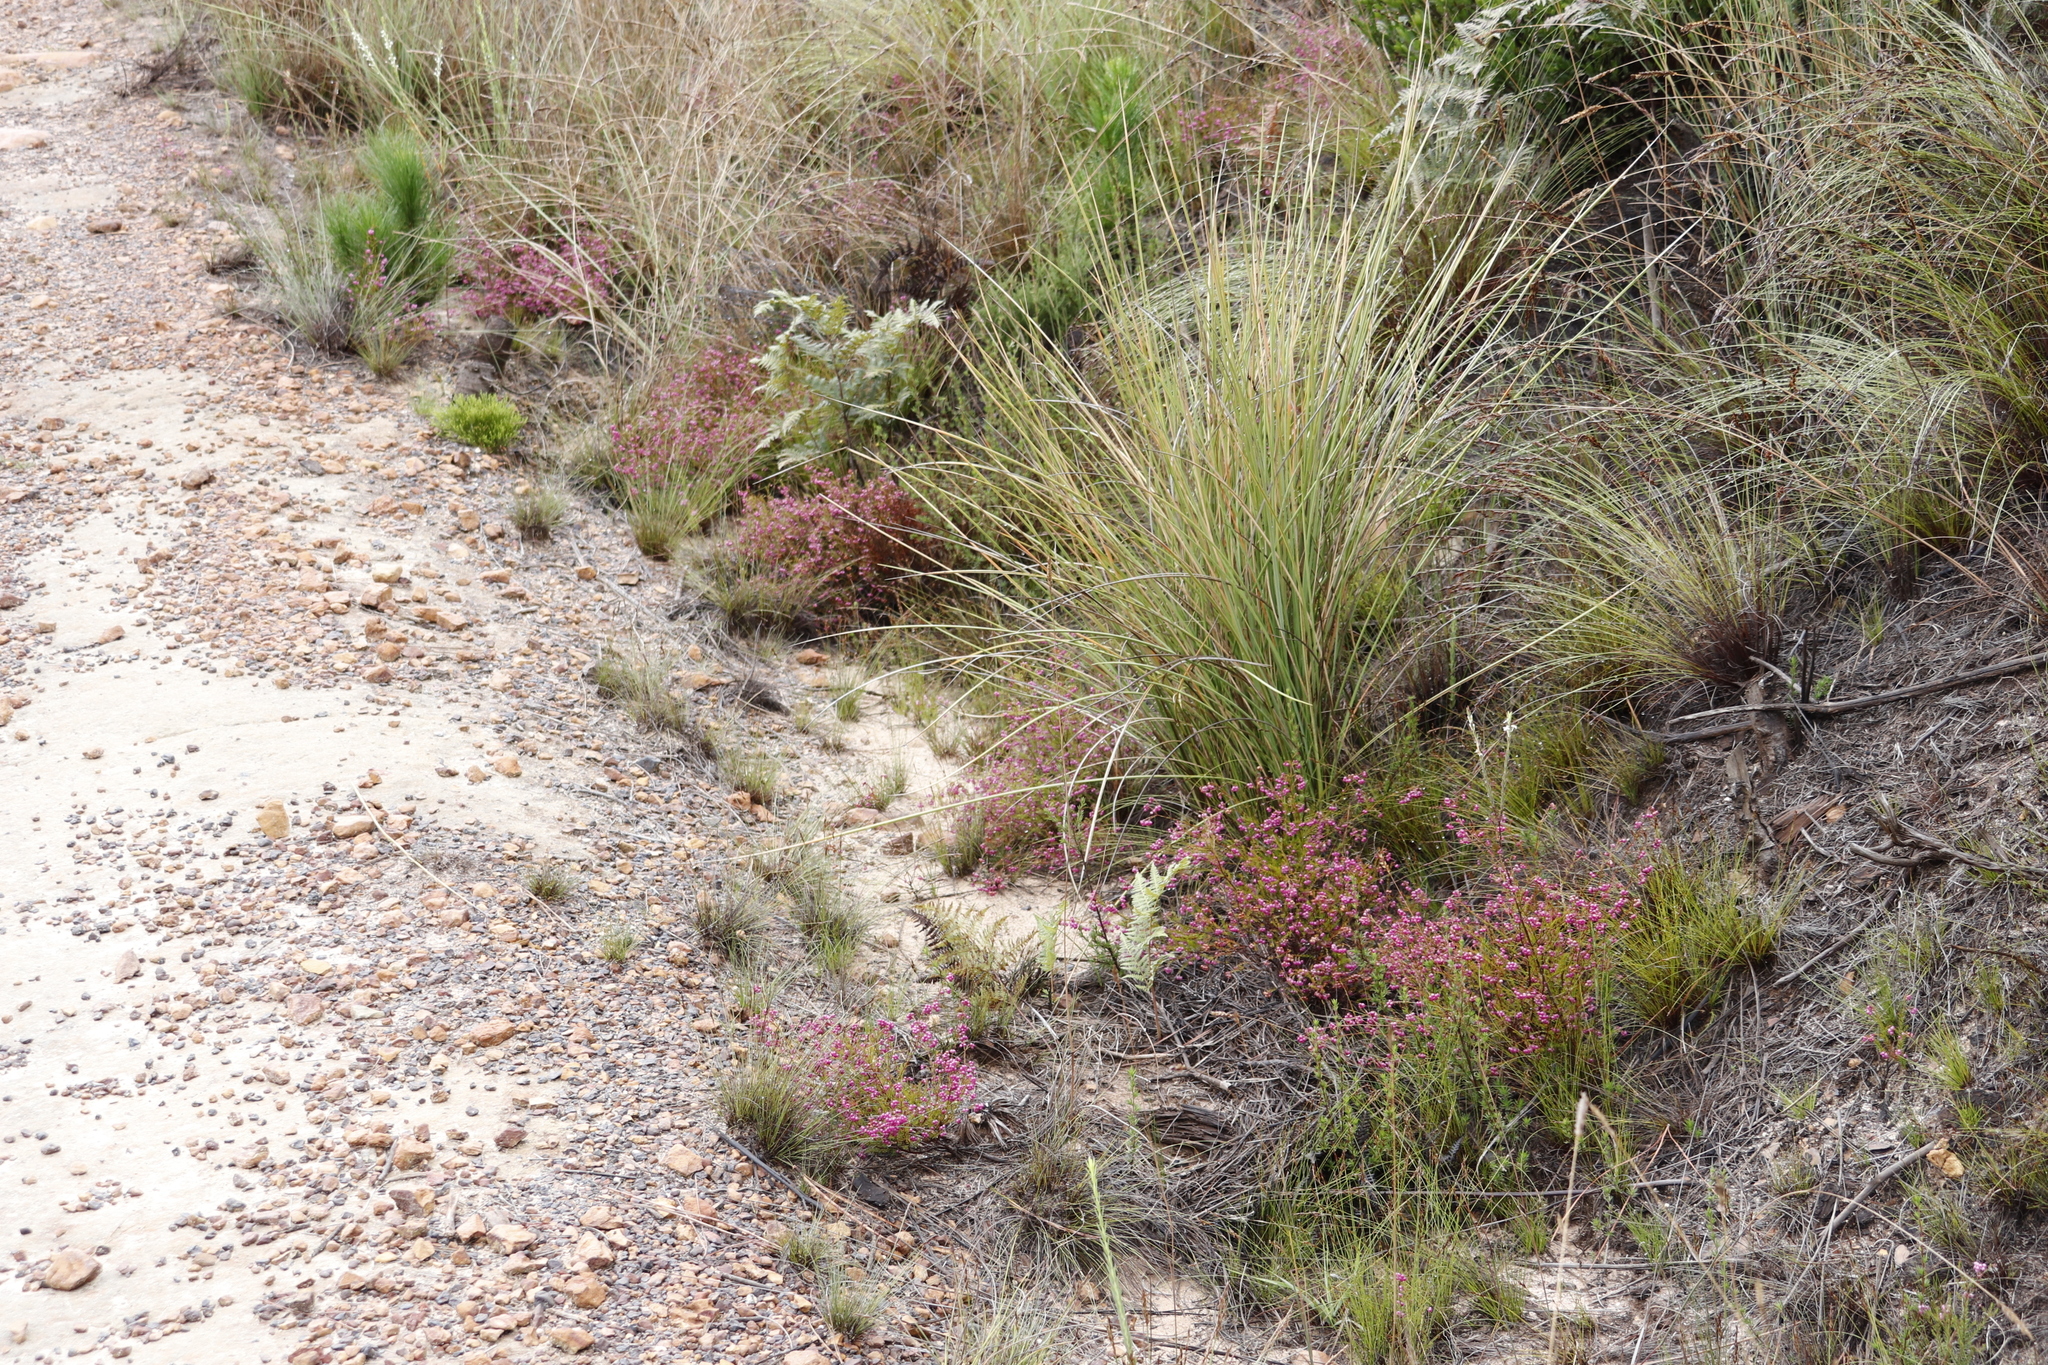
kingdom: Plantae
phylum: Tracheophyta
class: Magnoliopsida
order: Ericales
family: Ericaceae
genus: Erica
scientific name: Erica multumbellifera
